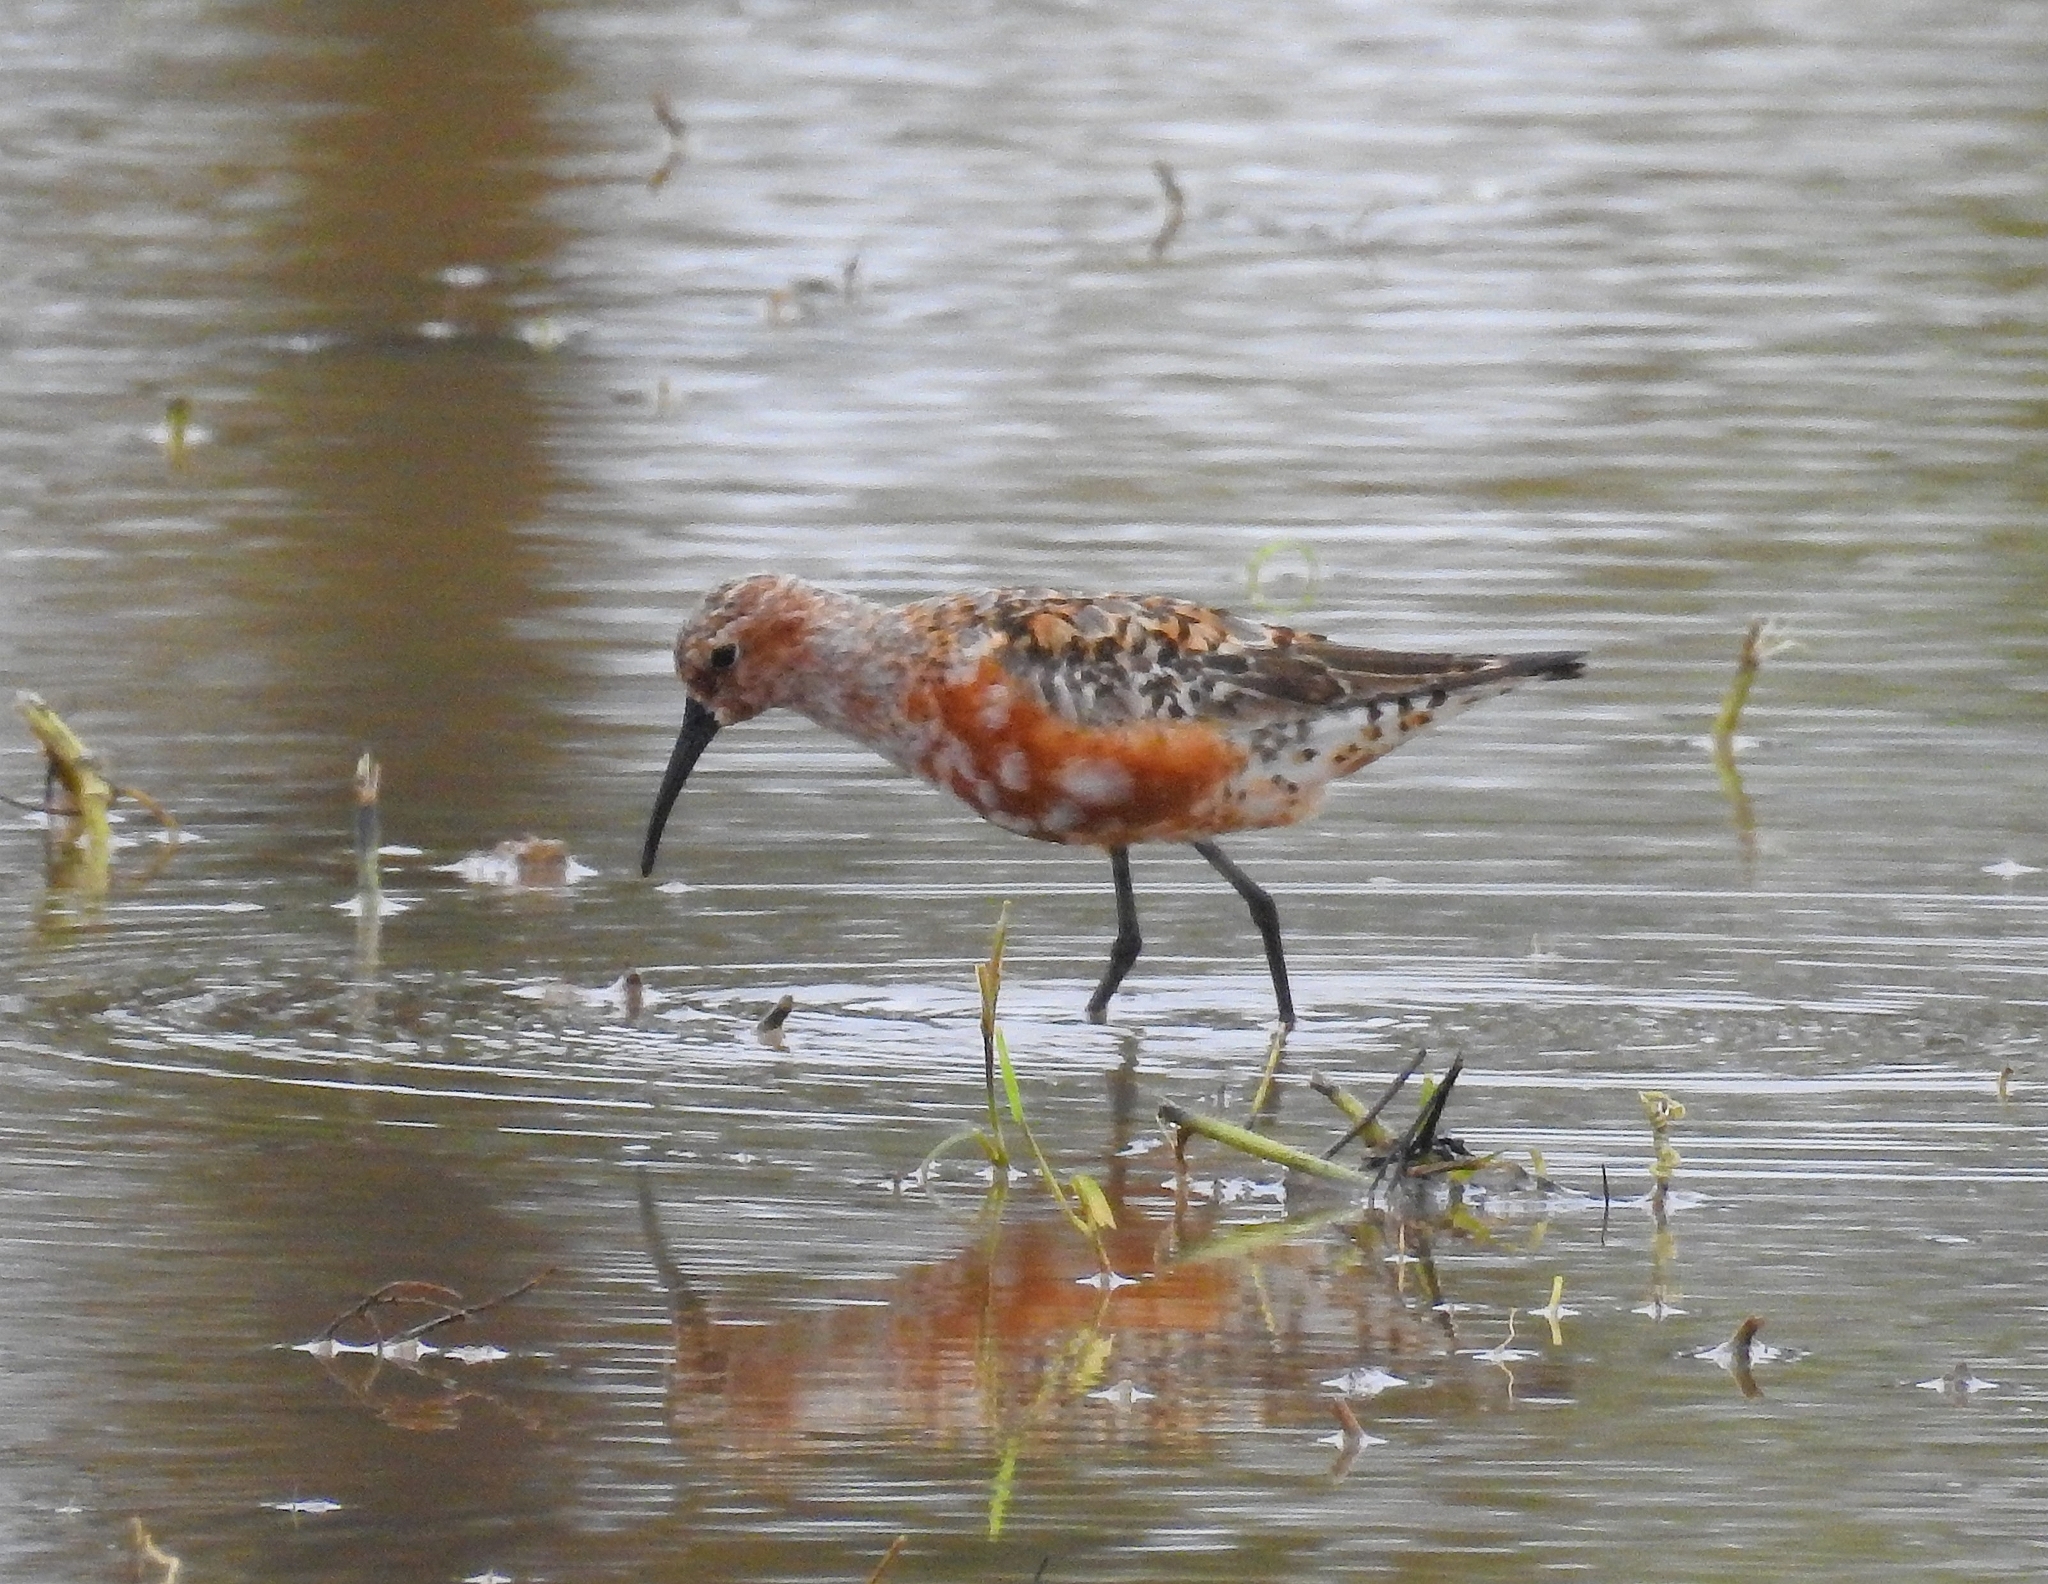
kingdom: Animalia
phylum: Chordata
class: Aves
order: Charadriiformes
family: Scolopacidae
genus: Calidris
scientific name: Calidris ferruginea
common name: Curlew sandpiper
